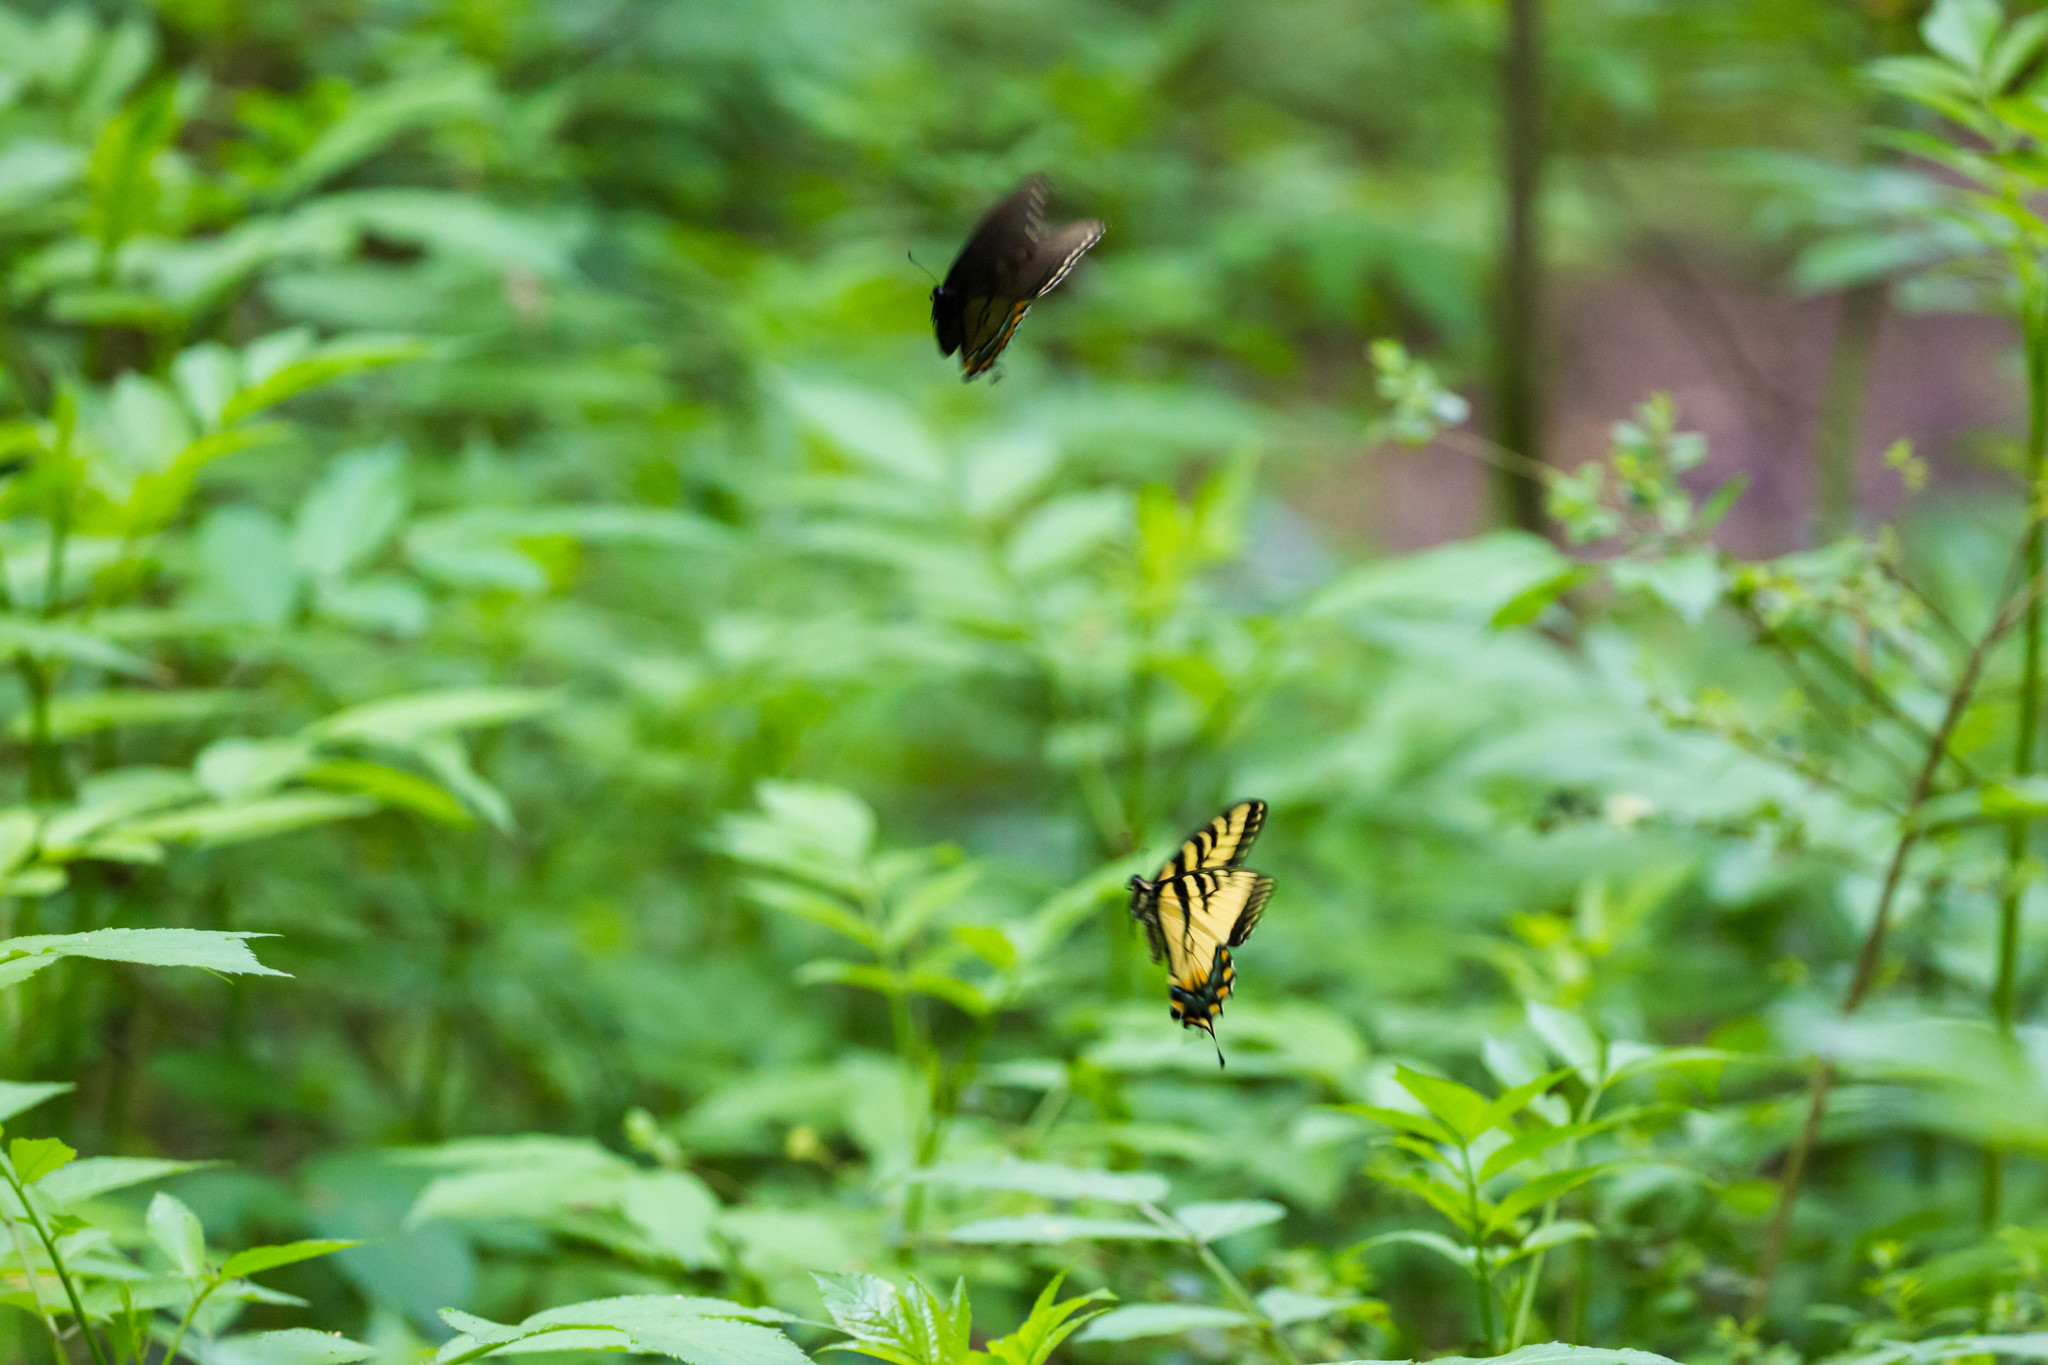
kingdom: Animalia
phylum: Arthropoda
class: Insecta
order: Lepidoptera
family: Papilionidae
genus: Papilio
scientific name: Papilio glaucus
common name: Tiger swallowtail
